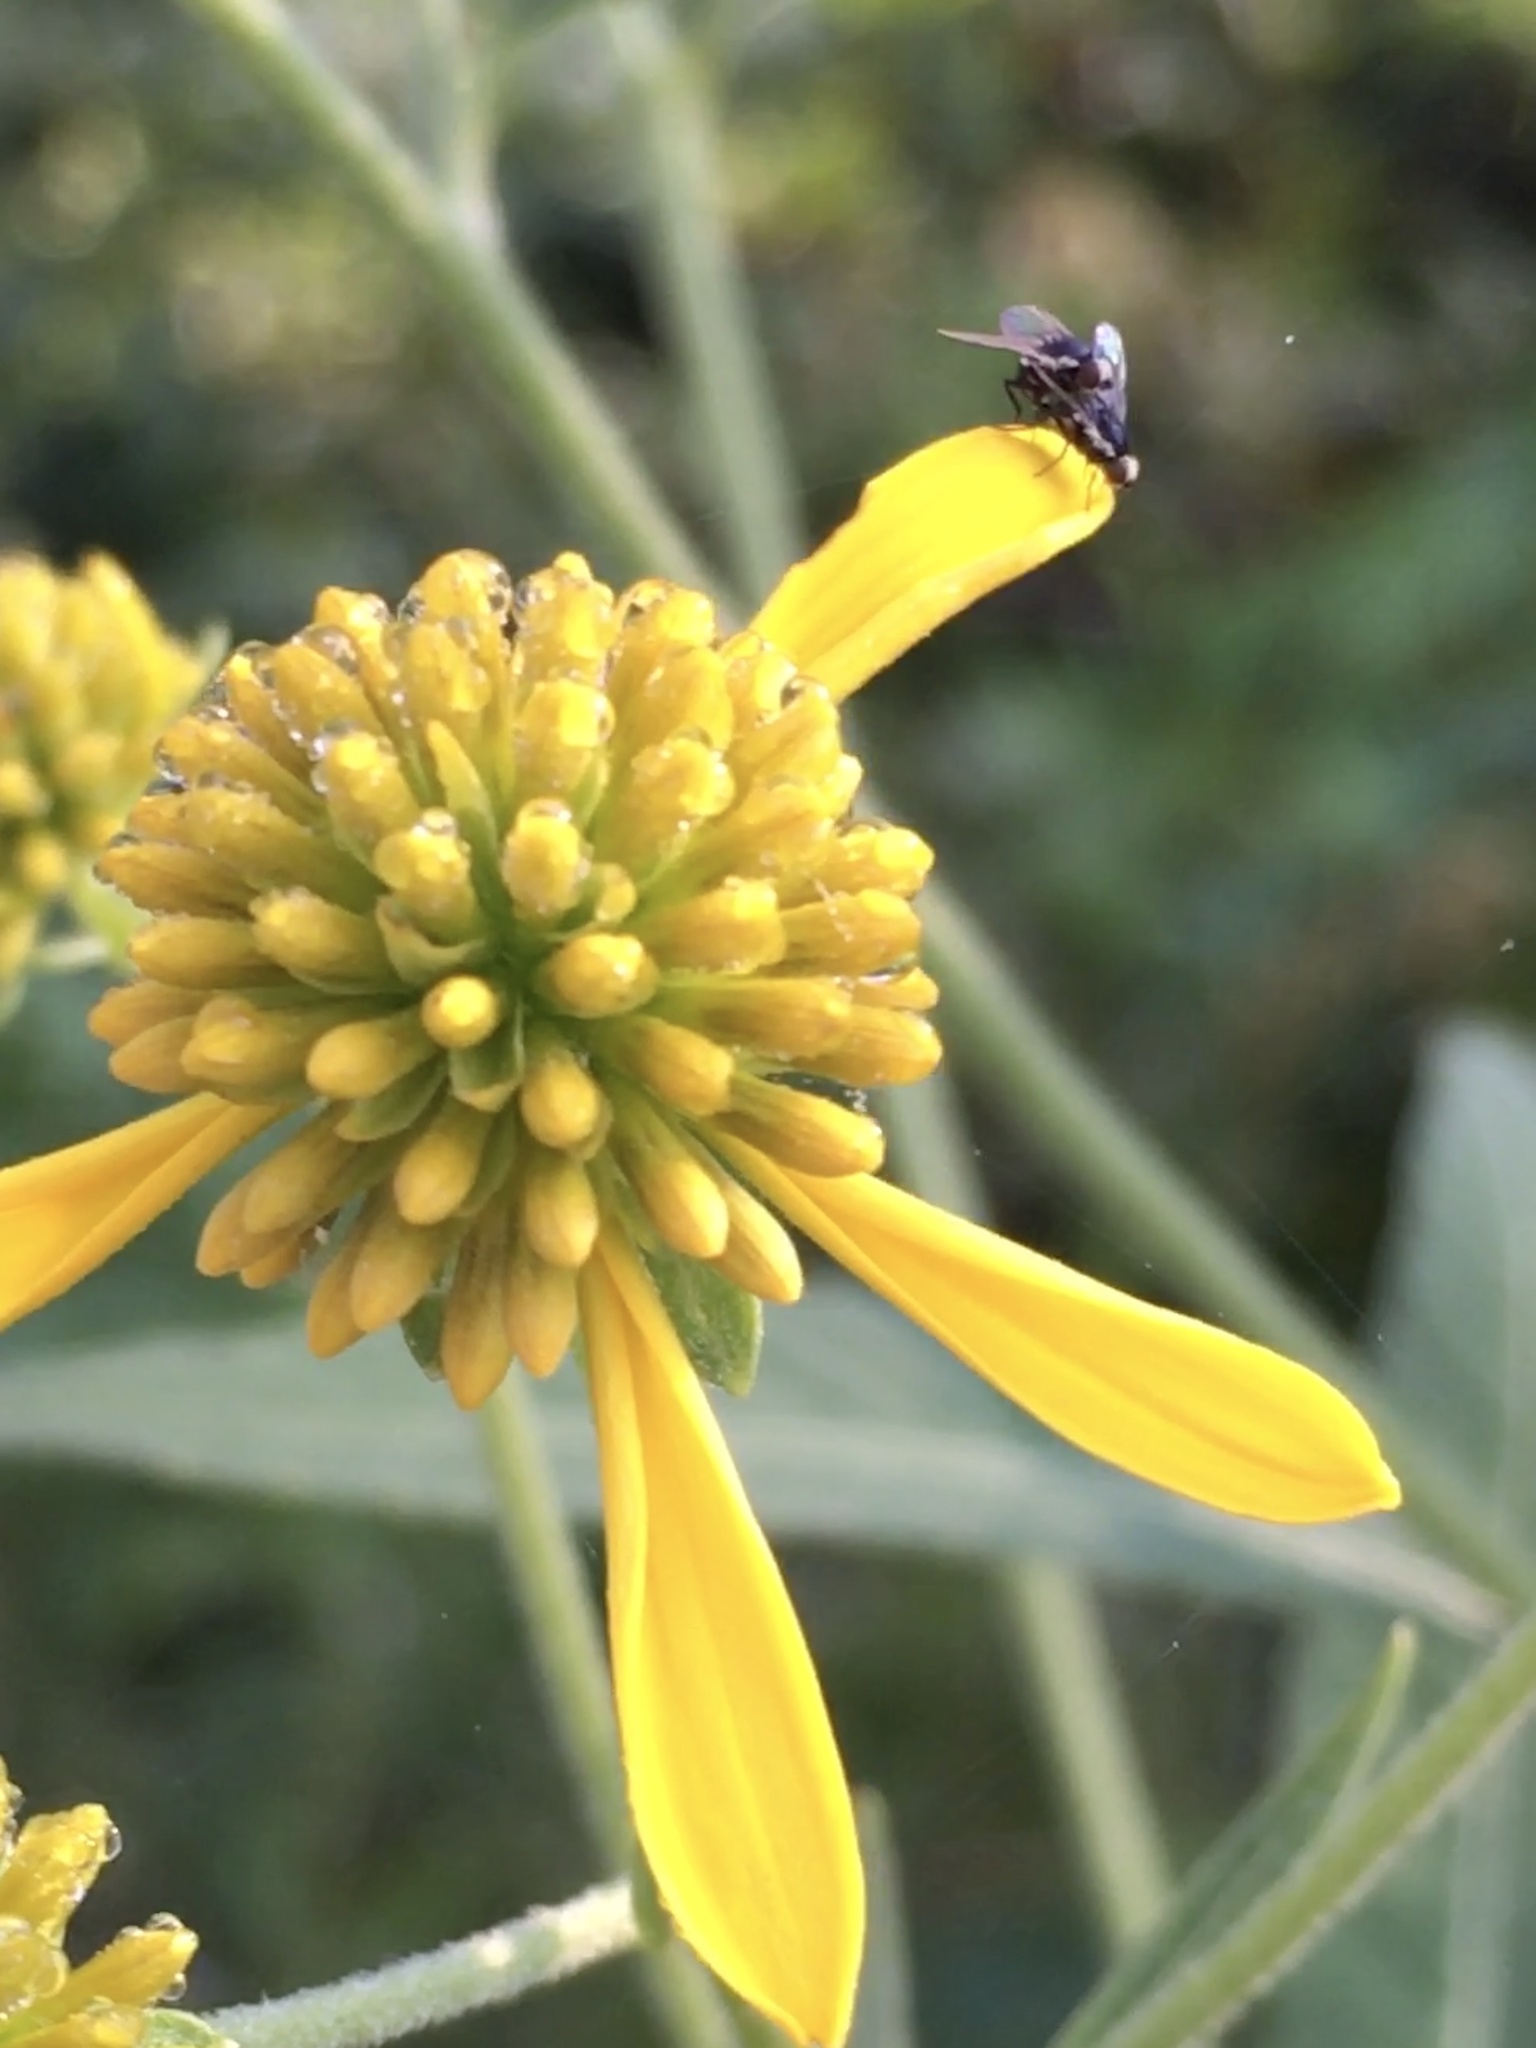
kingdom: Plantae
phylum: Tracheophyta
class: Magnoliopsida
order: Asterales
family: Asteraceae
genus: Verbesina
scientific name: Verbesina alternifolia
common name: Wingstem
